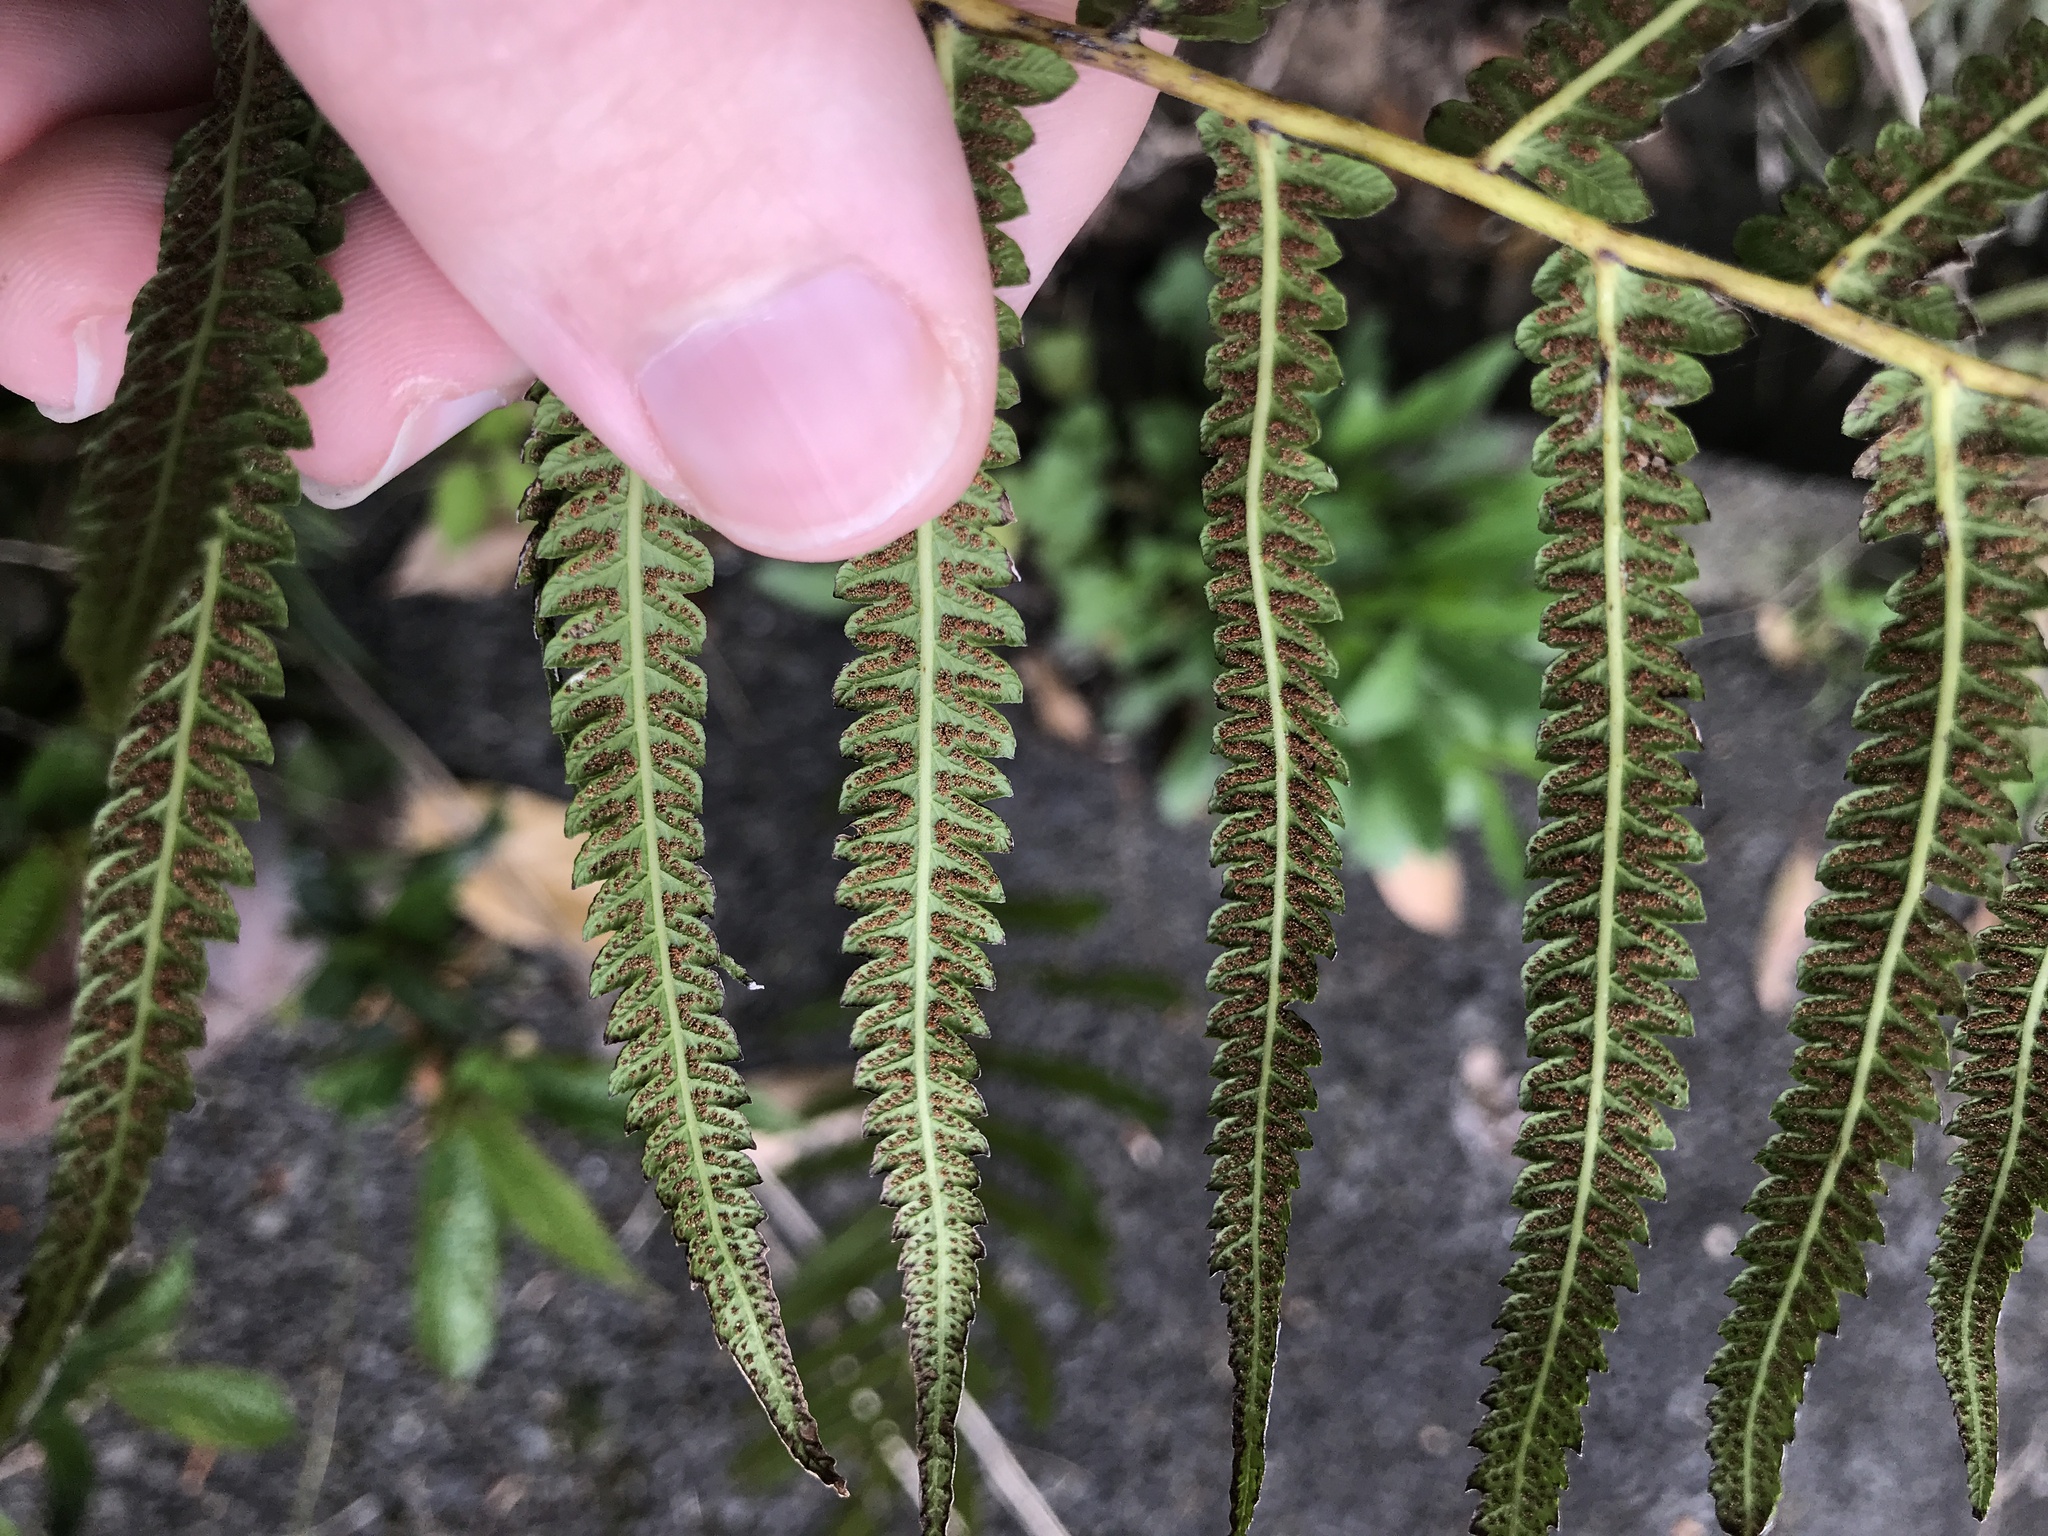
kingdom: Plantae
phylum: Tracheophyta
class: Polypodiopsida
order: Polypodiales
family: Thelypteridaceae
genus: Christella
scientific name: Christella acuminata
